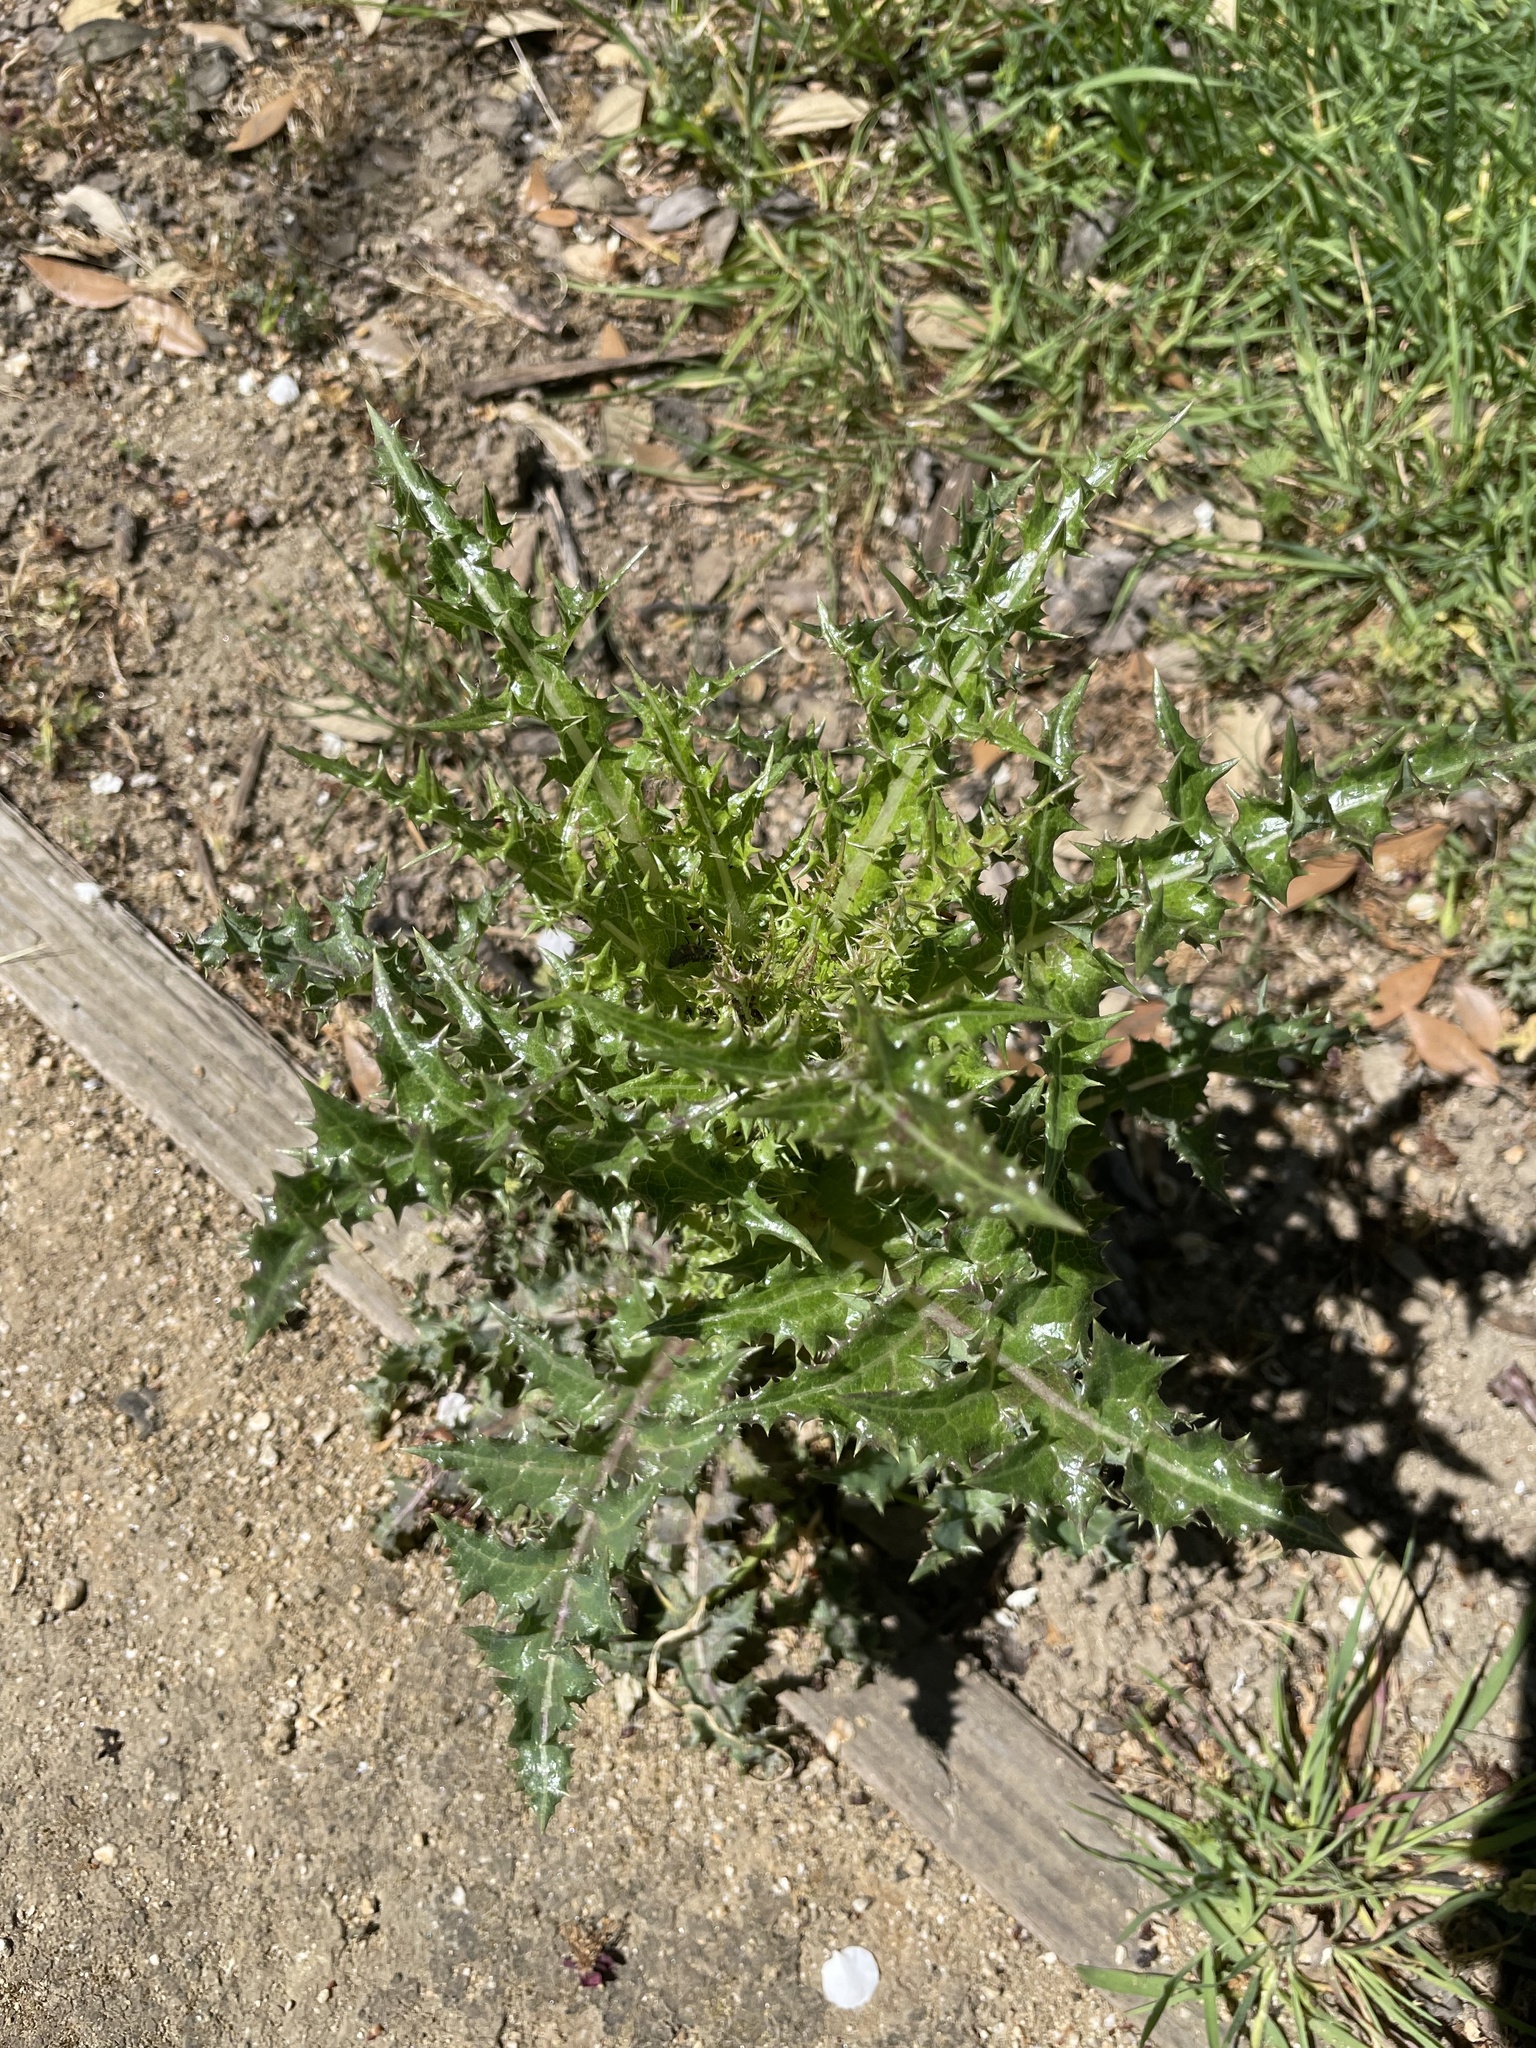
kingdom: Plantae
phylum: Tracheophyta
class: Magnoliopsida
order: Asterales
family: Asteraceae
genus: Sonchus
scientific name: Sonchus asper
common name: Prickly sow-thistle
